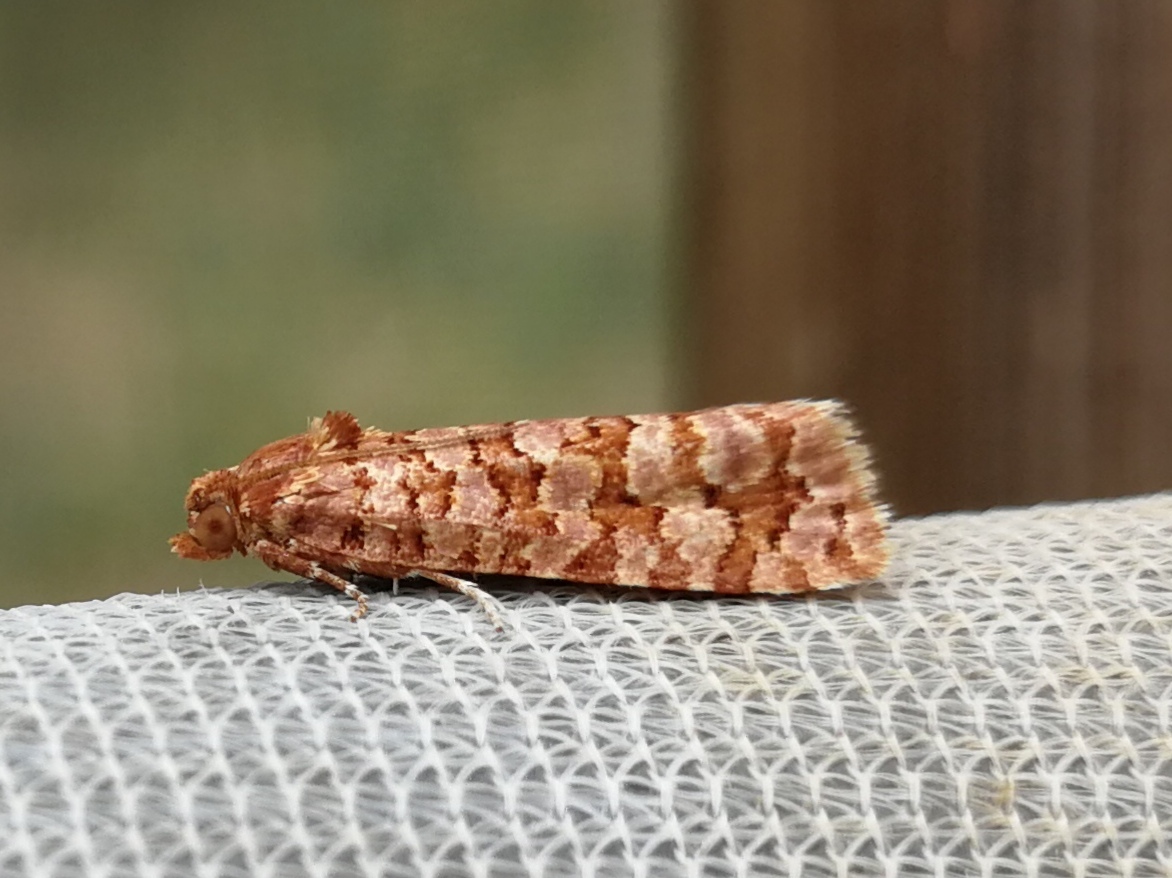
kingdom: Animalia
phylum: Arthropoda
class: Insecta
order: Lepidoptera
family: Tortricidae
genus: Lozotaeniodes
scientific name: Lozotaeniodes formosana
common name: Orange pine twist
